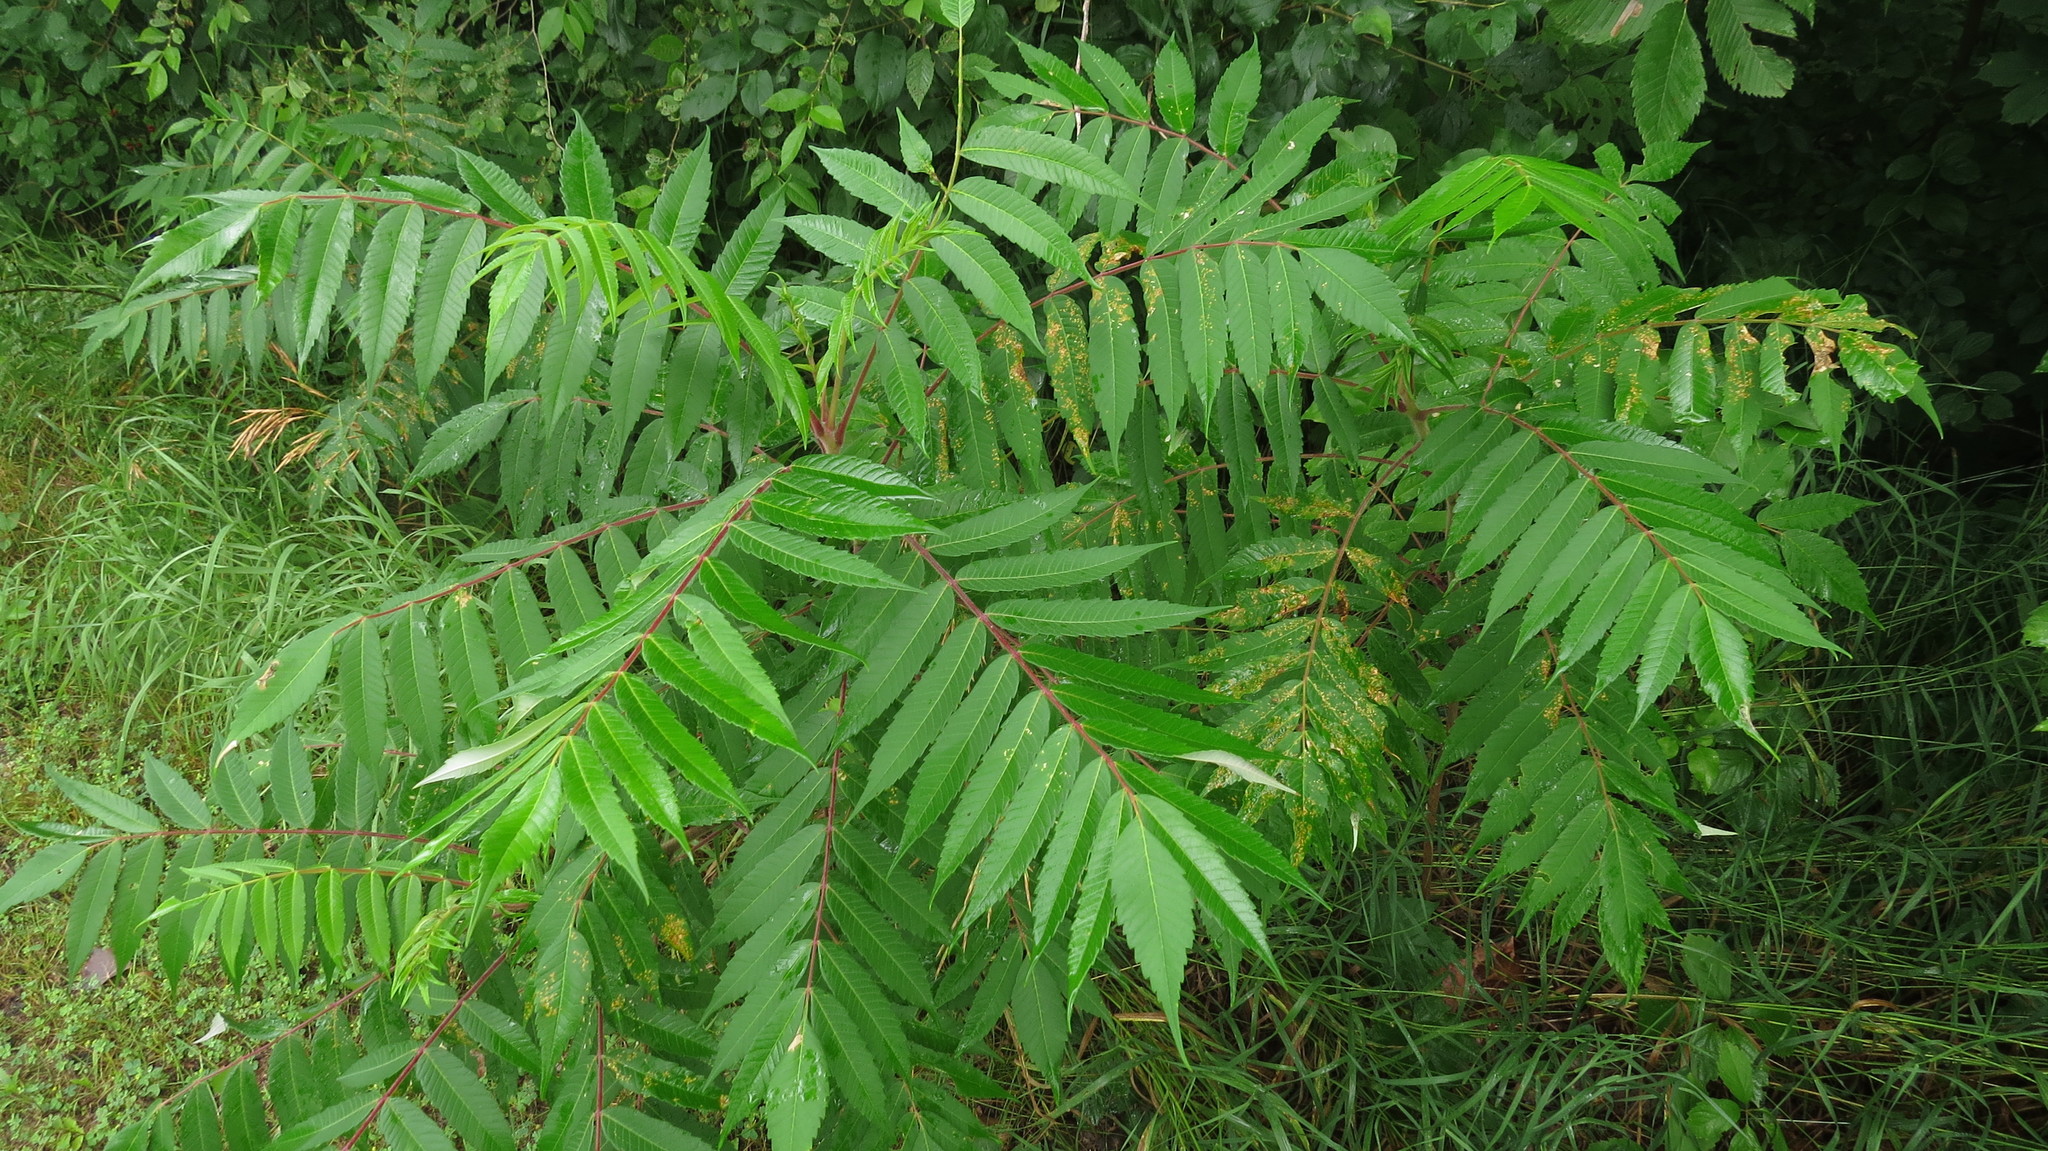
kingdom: Plantae
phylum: Tracheophyta
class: Magnoliopsida
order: Sapindales
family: Anacardiaceae
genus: Rhus
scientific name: Rhus typhina
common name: Staghorn sumac
